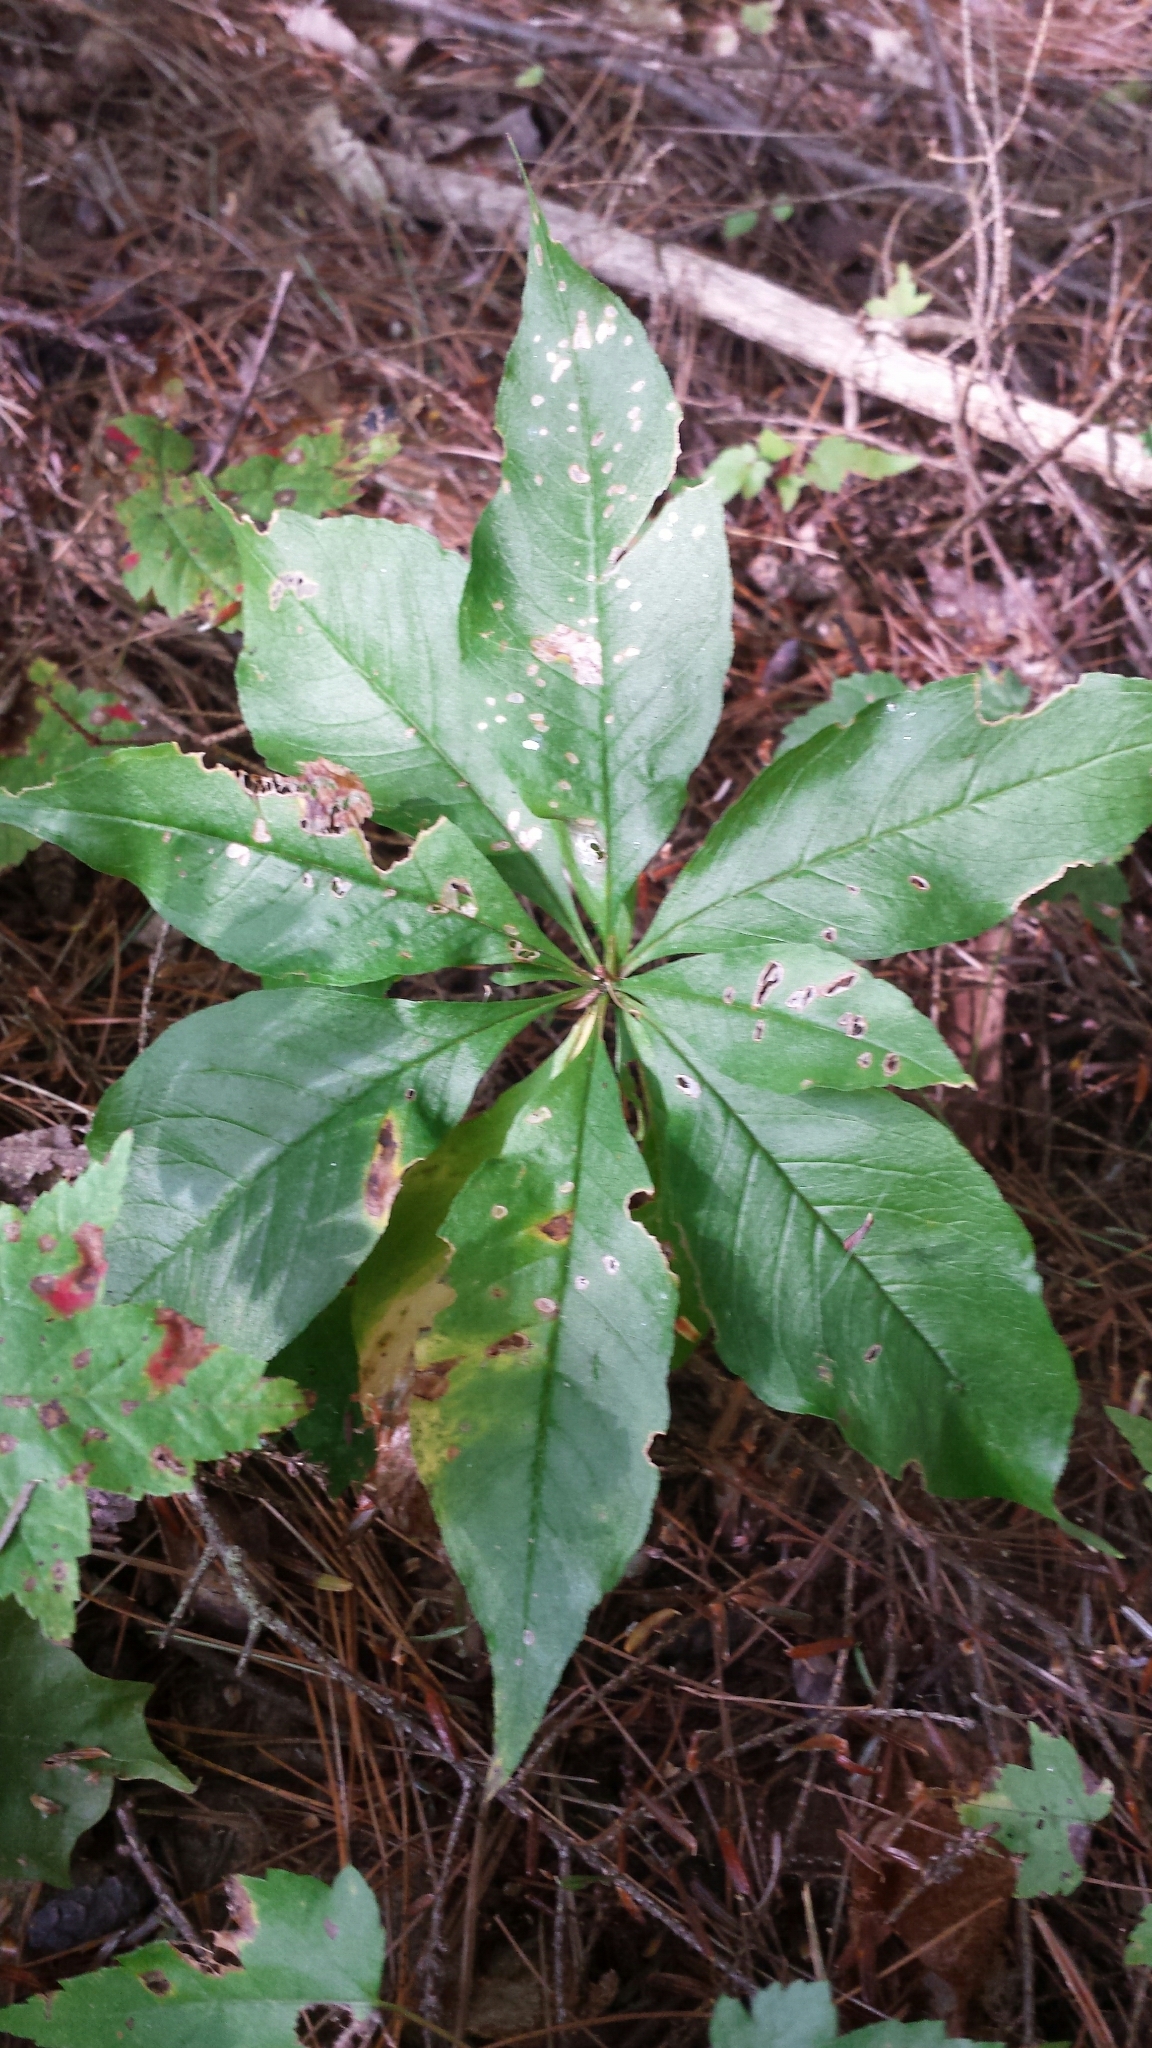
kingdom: Plantae
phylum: Tracheophyta
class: Magnoliopsida
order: Ericales
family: Primulaceae
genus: Lysimachia
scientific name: Lysimachia borealis
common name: American starflower
